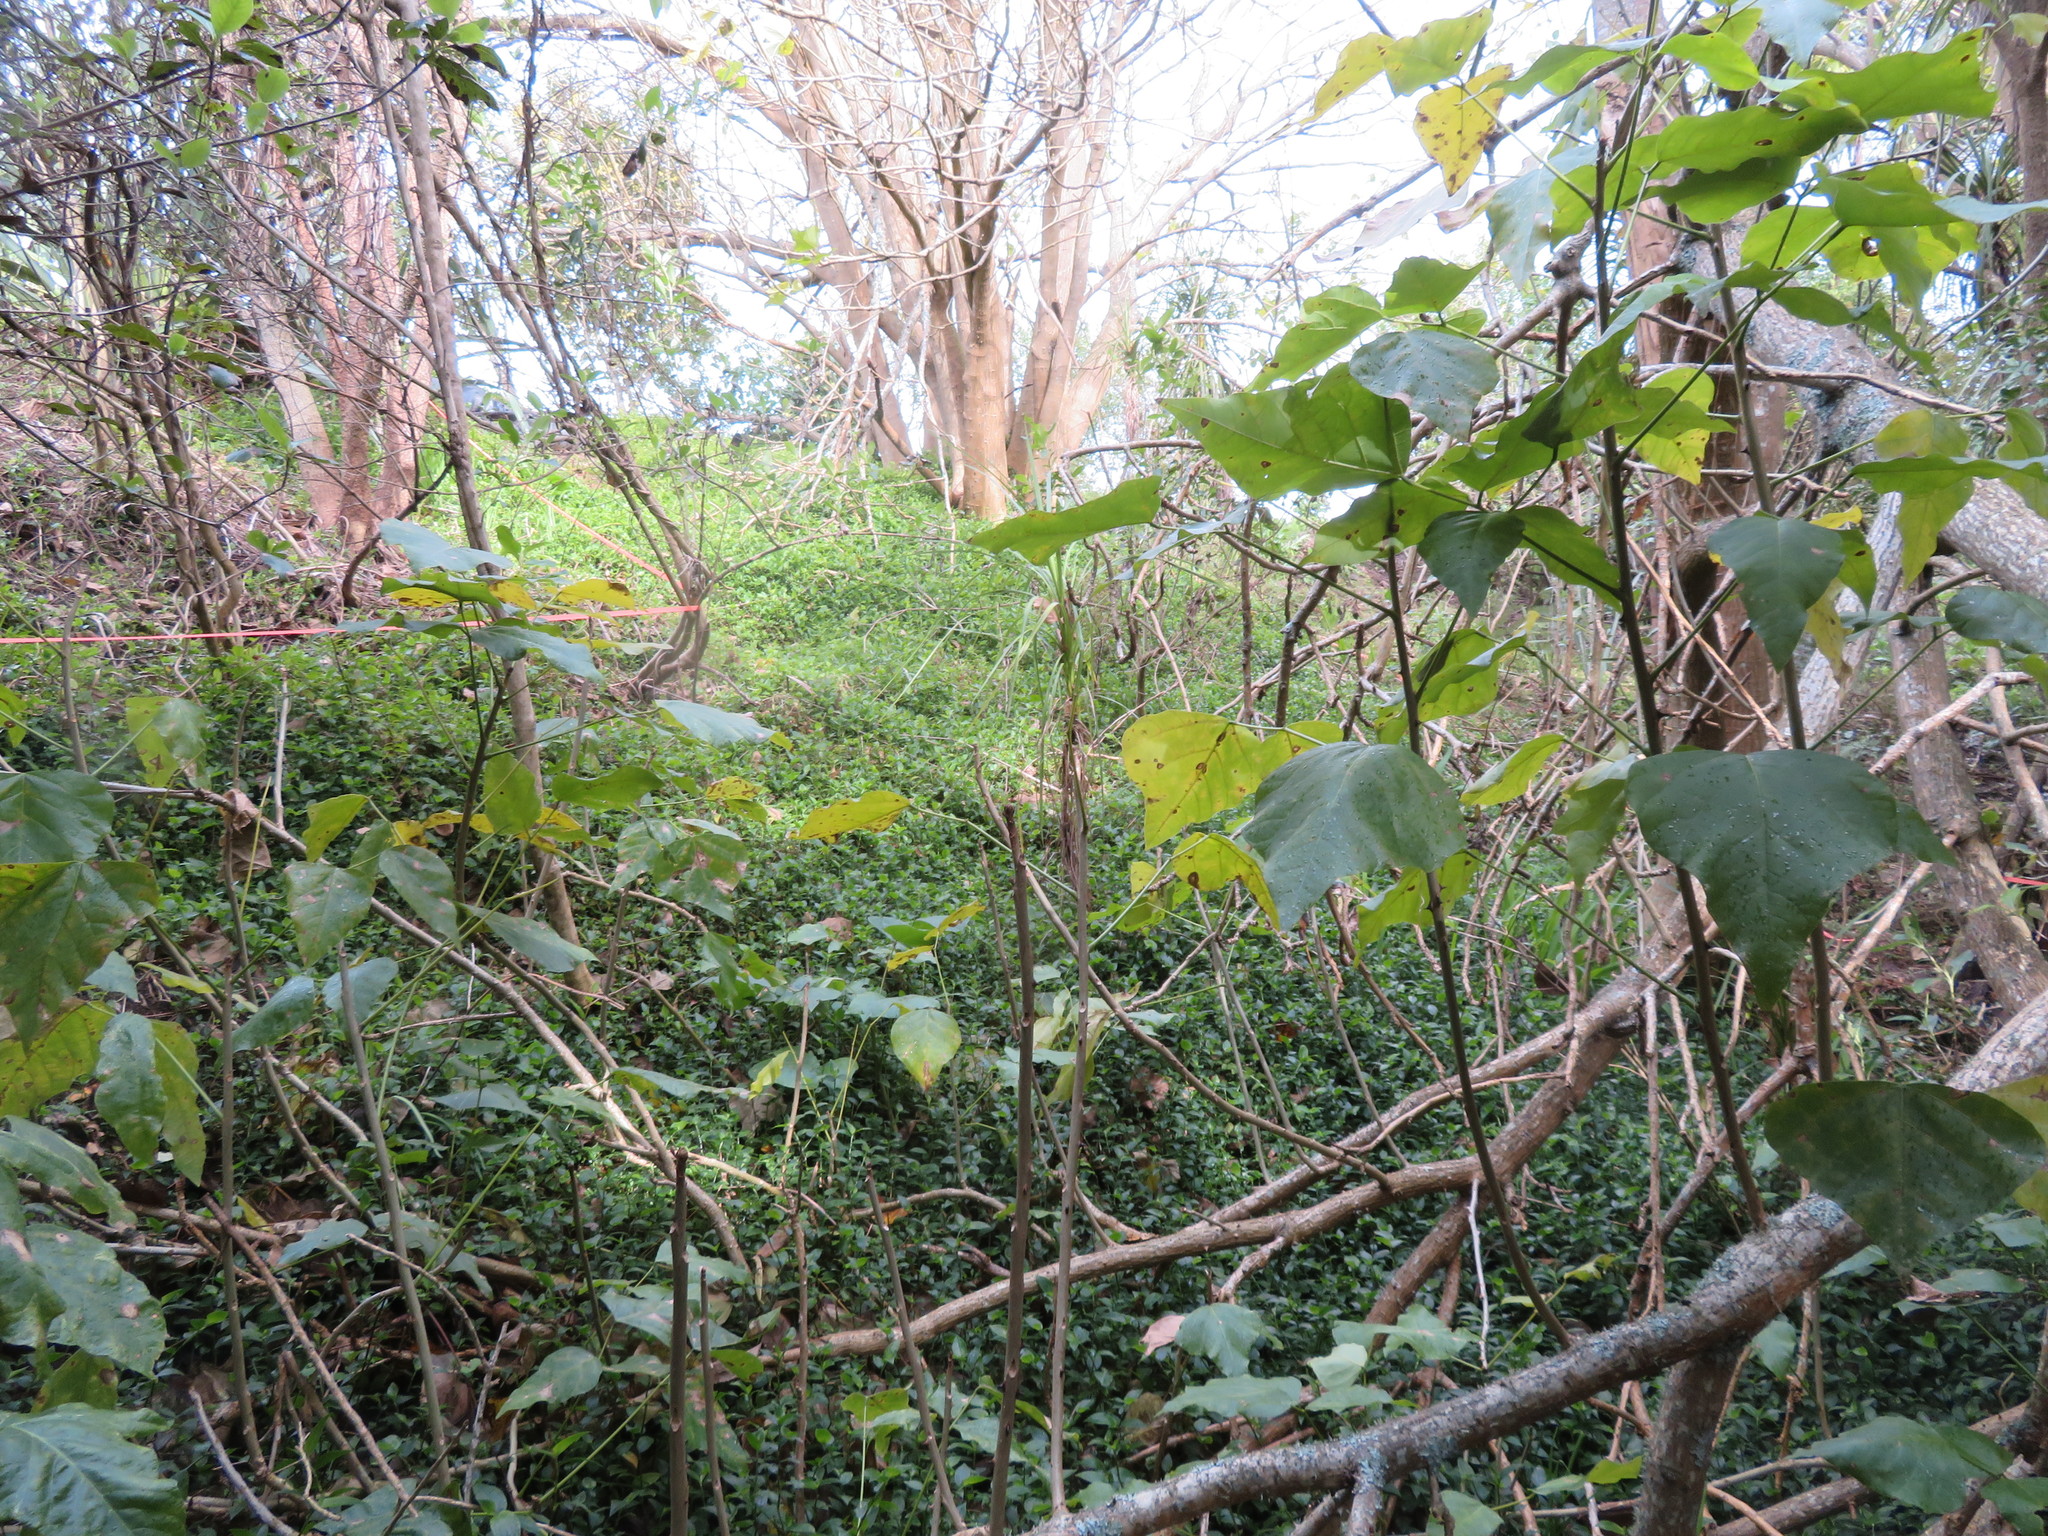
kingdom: Plantae
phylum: Tracheophyta
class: Liliopsida
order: Commelinales
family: Commelinaceae
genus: Tradescantia
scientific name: Tradescantia fluminensis
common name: Wandering-jew
